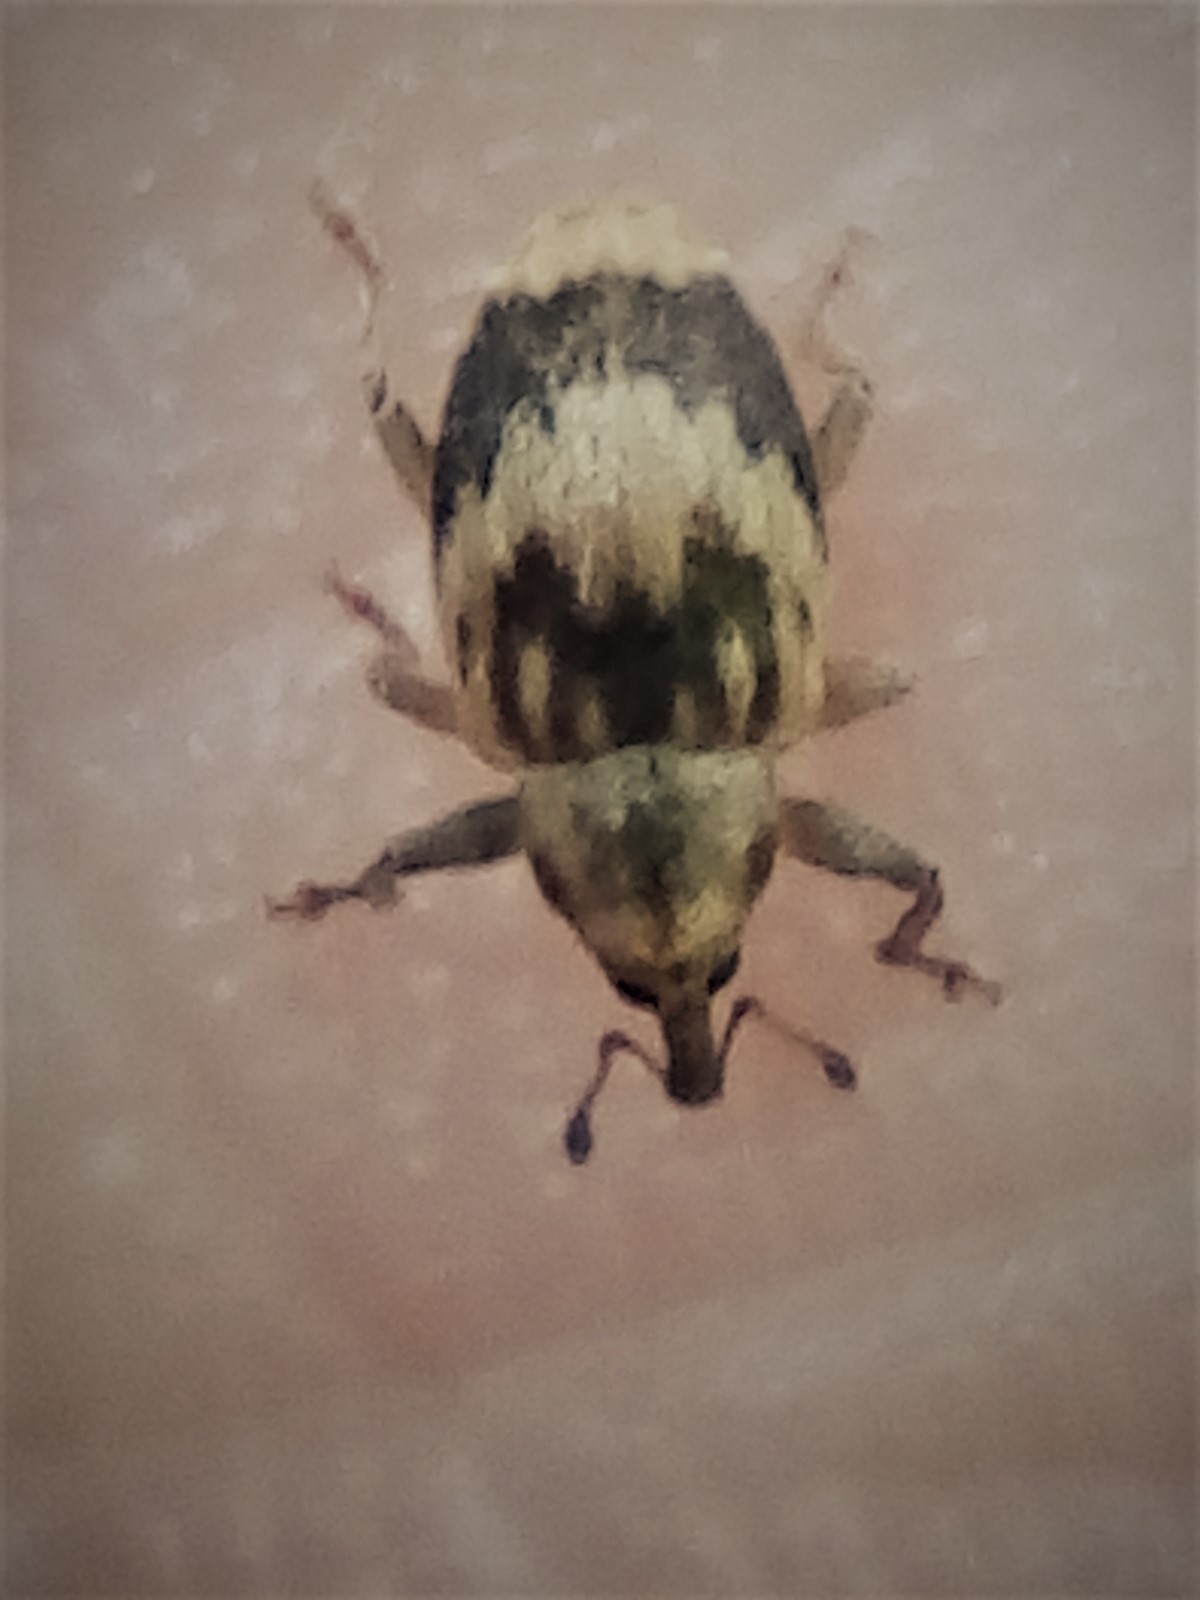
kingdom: Animalia
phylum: Arthropoda
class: Insecta
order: Coleoptera
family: Curculionidae
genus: Aneuma
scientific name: Aneuma compta
